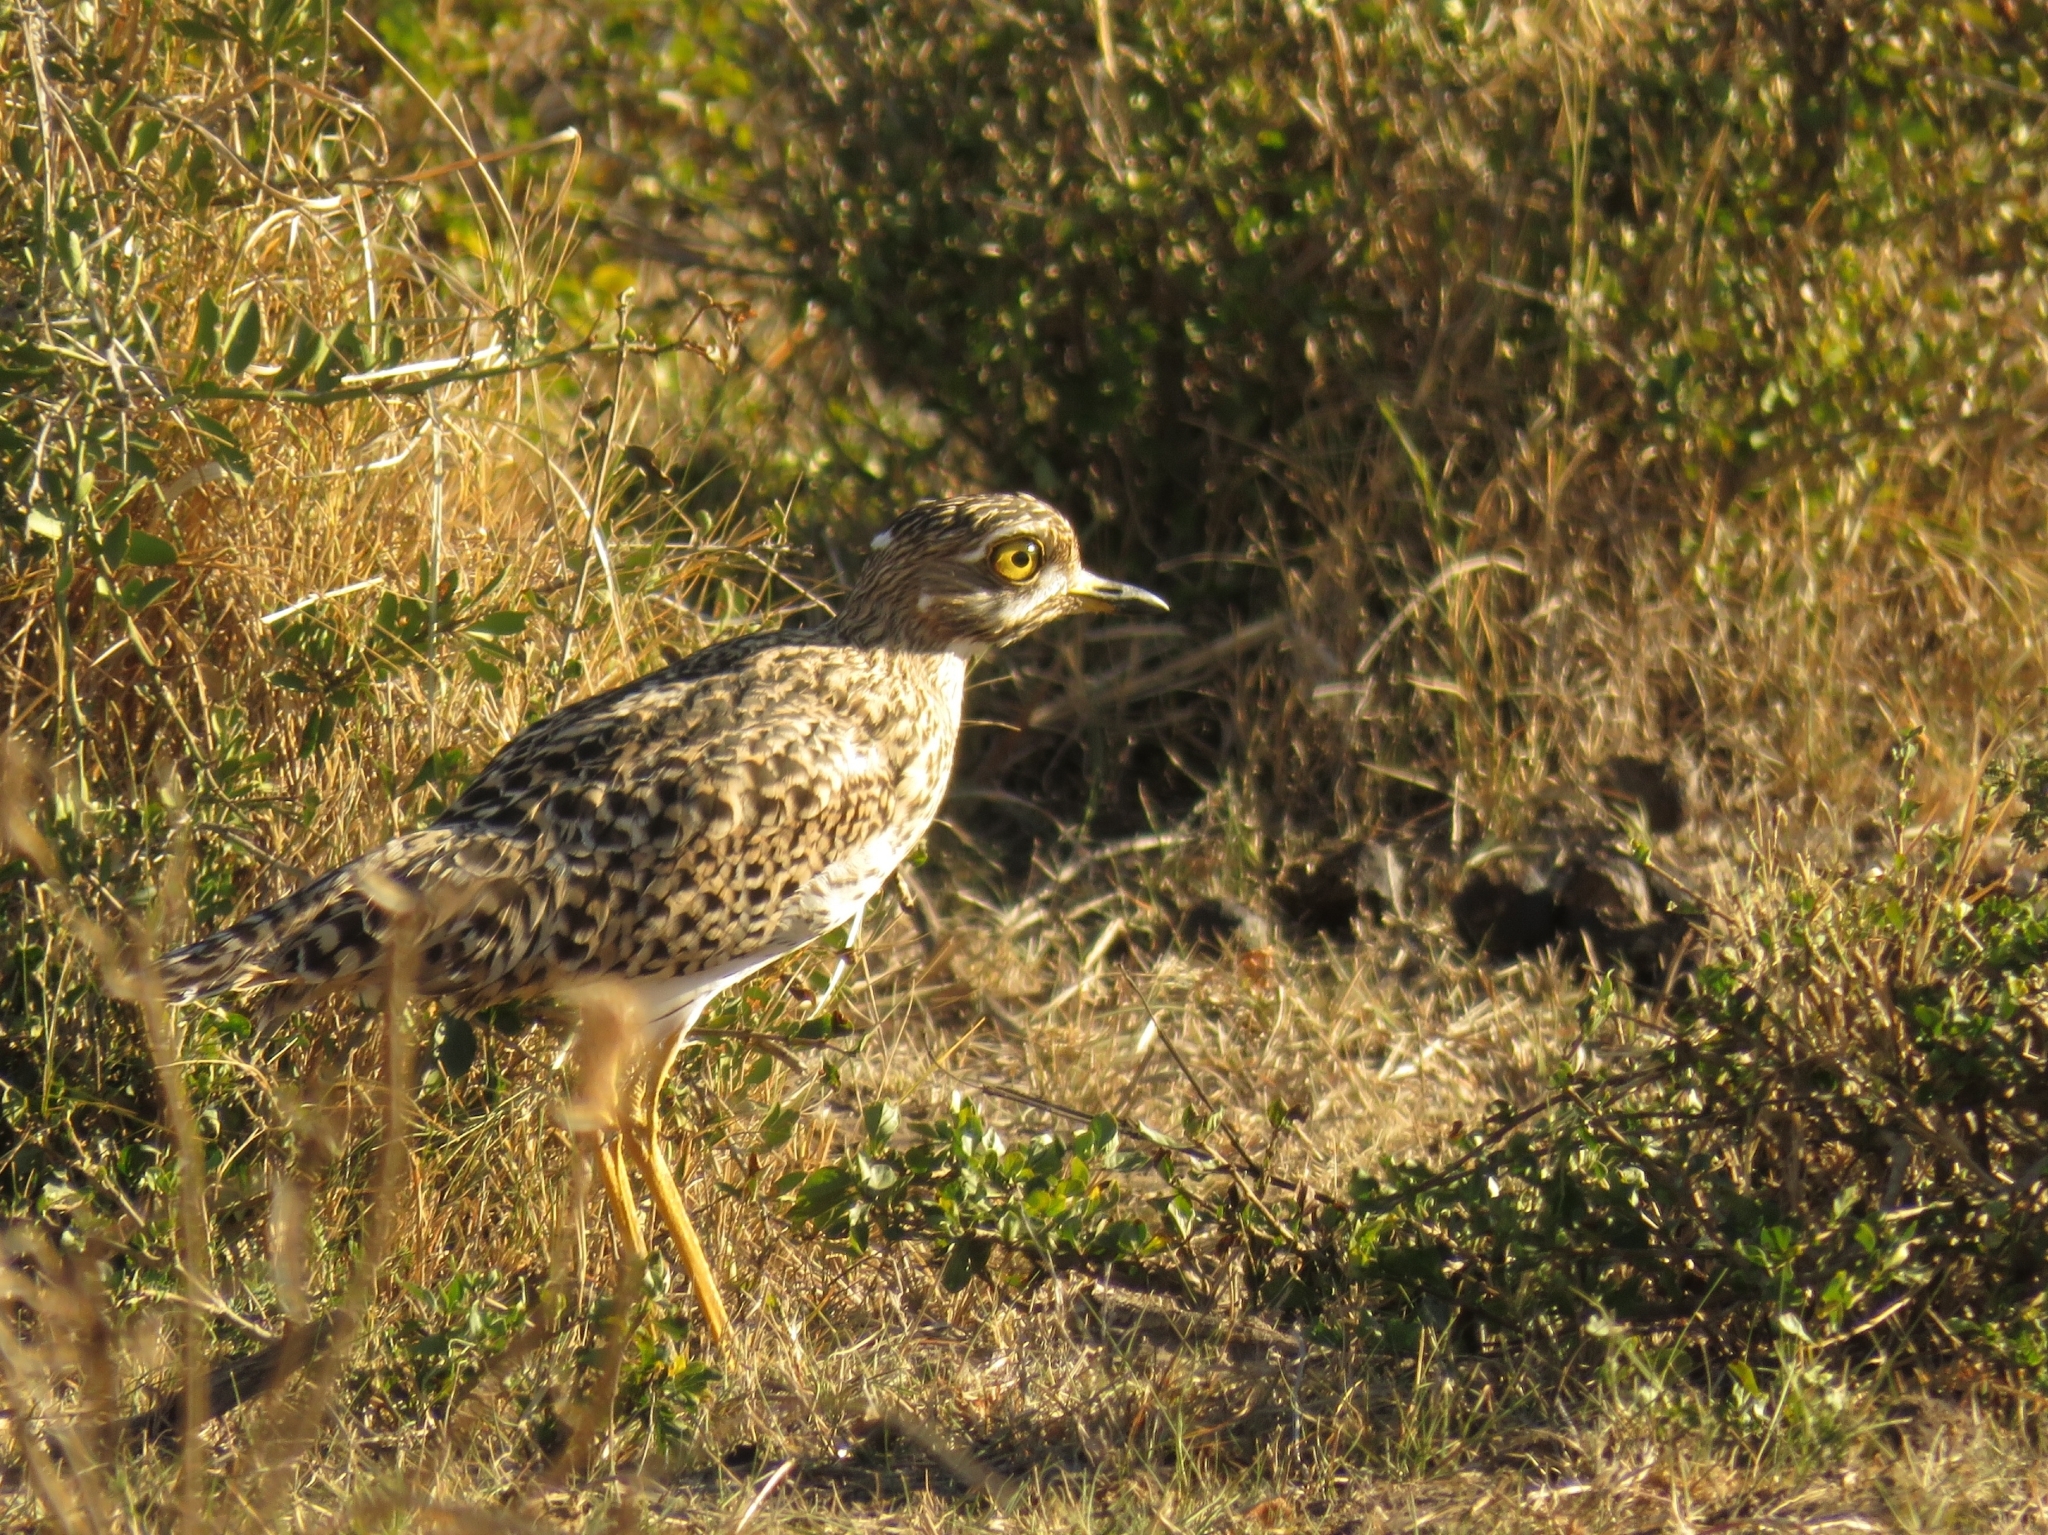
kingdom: Animalia
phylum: Chordata
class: Aves
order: Charadriiformes
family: Burhinidae
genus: Burhinus
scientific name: Burhinus capensis
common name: Spotted thick-knee
